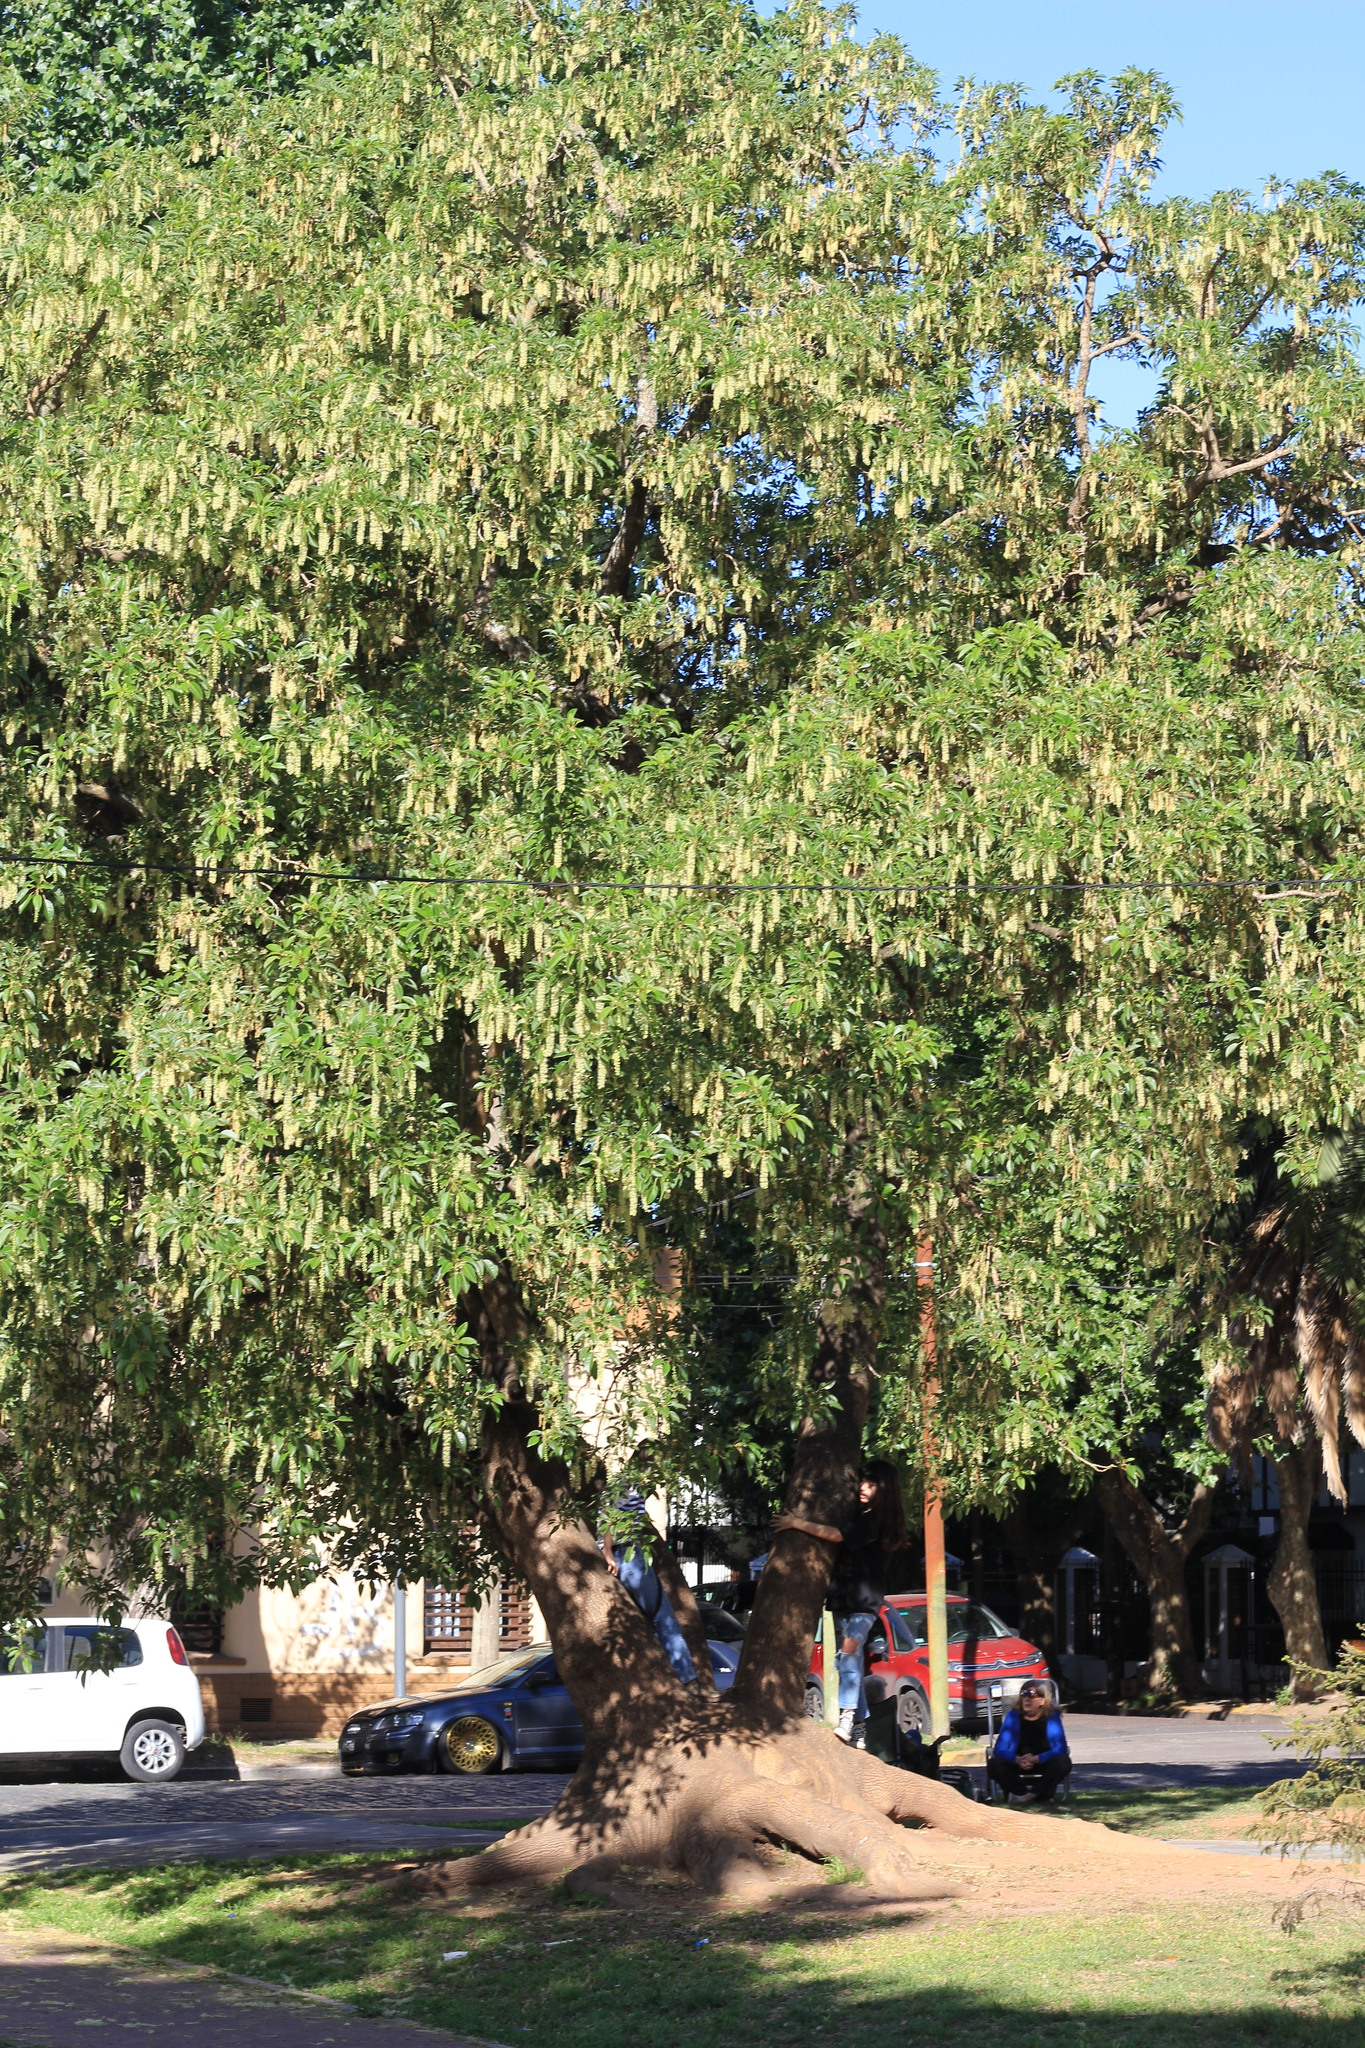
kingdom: Plantae
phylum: Tracheophyta
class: Magnoliopsida
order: Caryophyllales
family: Phytolaccaceae
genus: Phytolacca
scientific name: Phytolacca dioica
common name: Pokeweed
